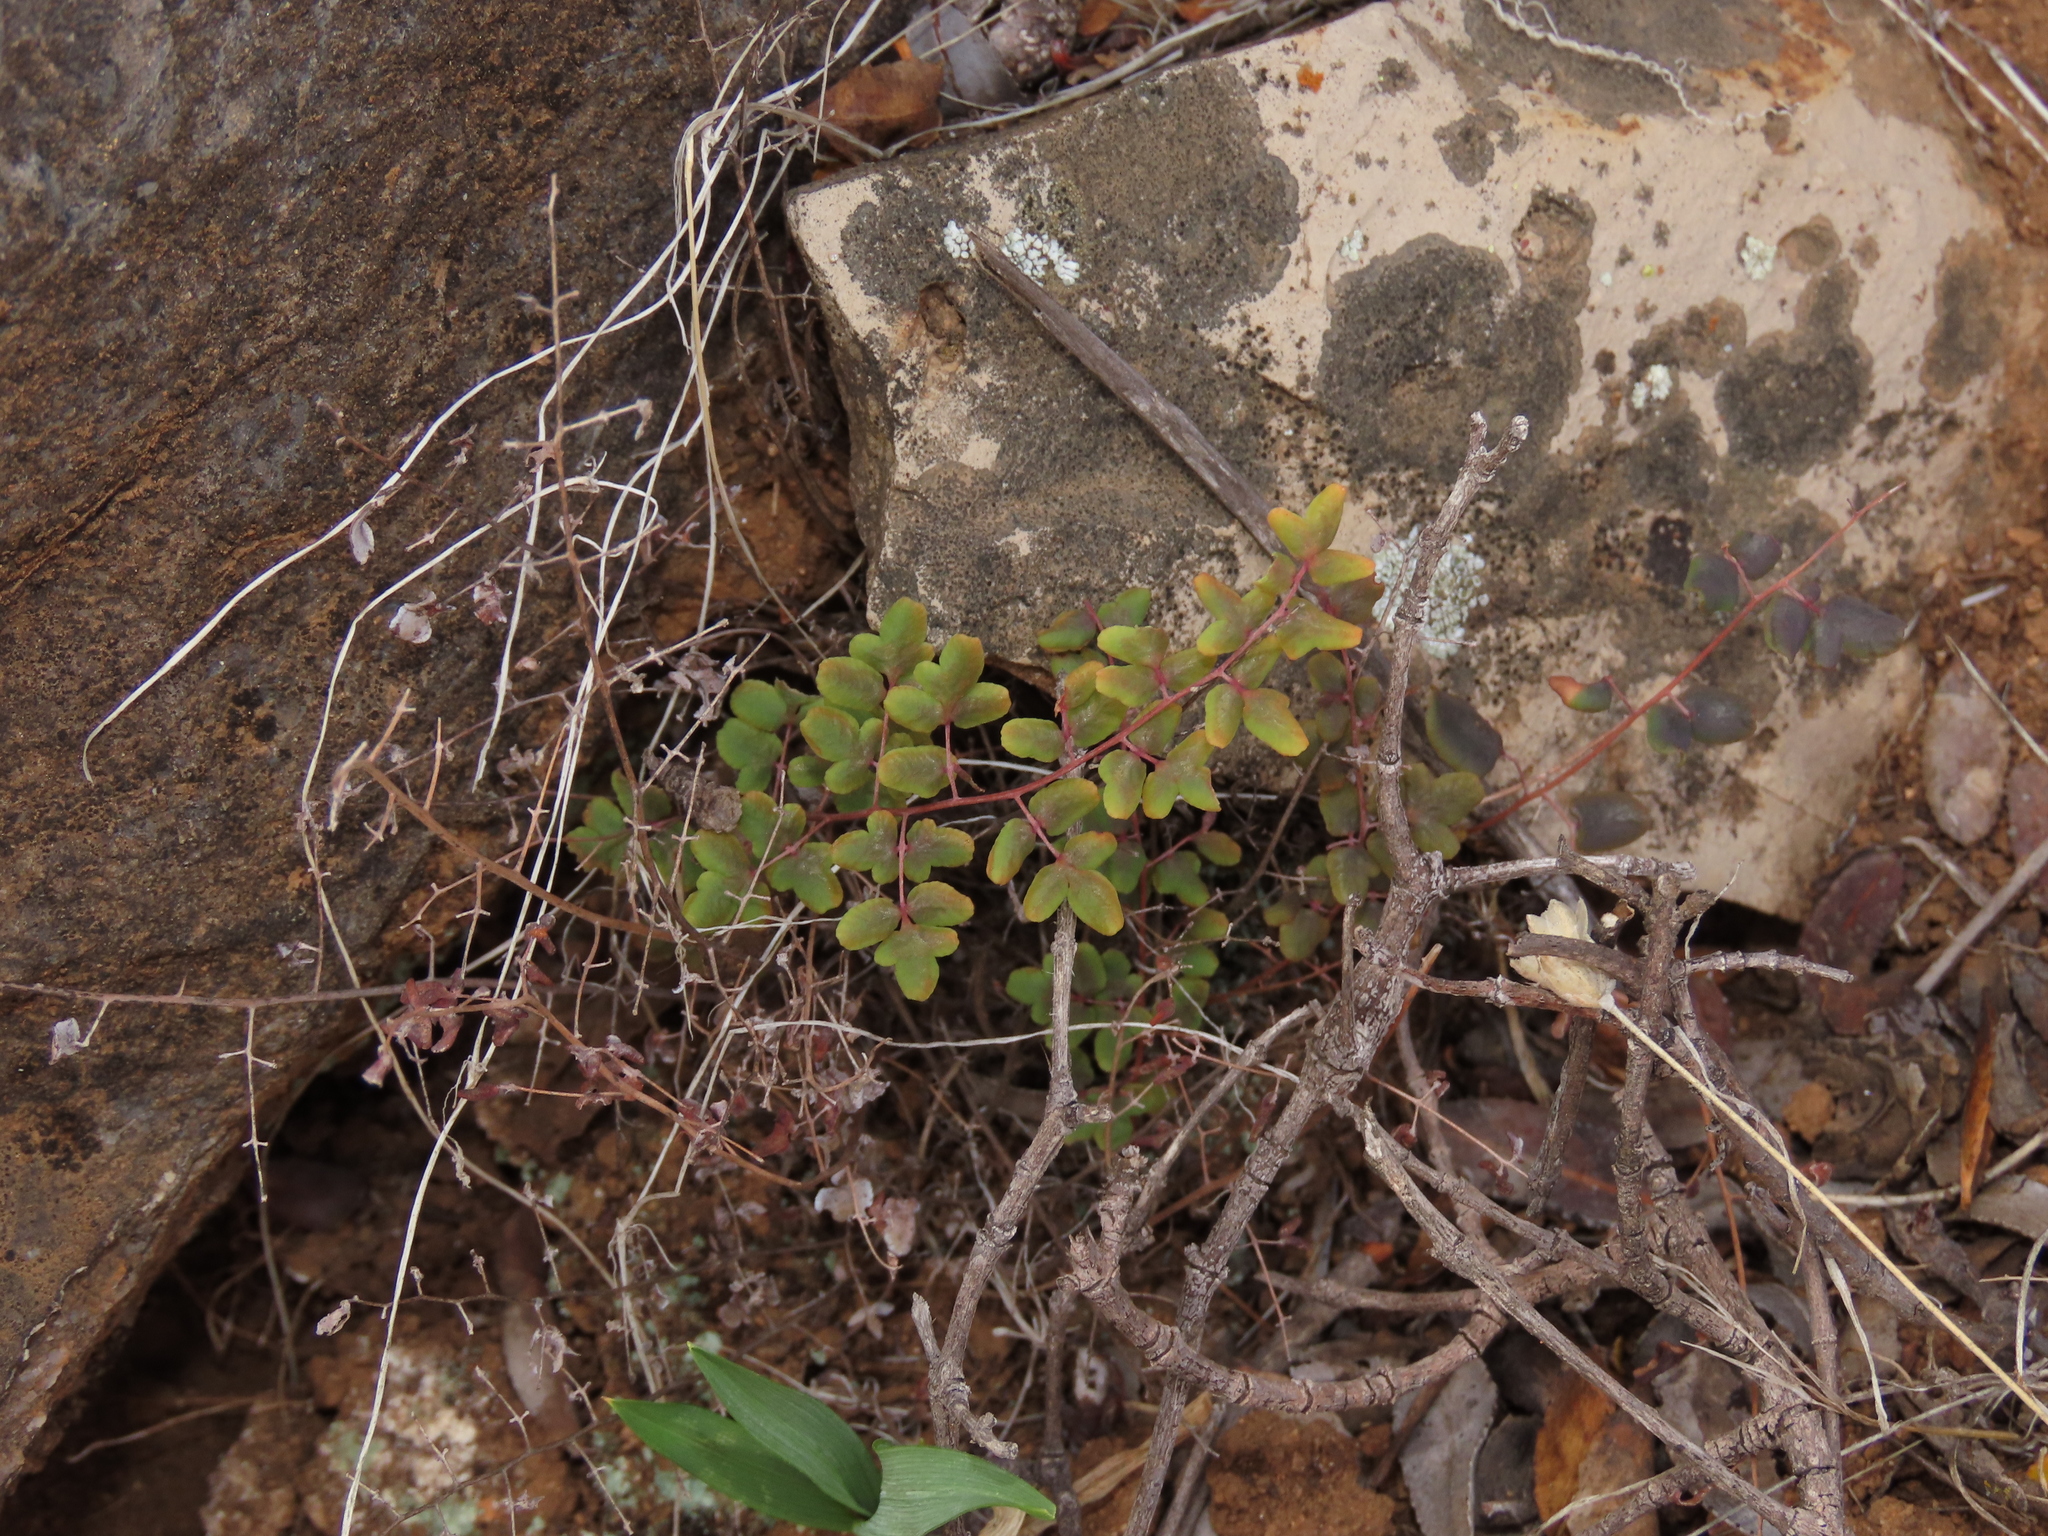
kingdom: Plantae
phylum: Tracheophyta
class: Polypodiopsida
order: Polypodiales
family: Pteridaceae
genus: Pellaea
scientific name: Pellaea myrtillifolia
